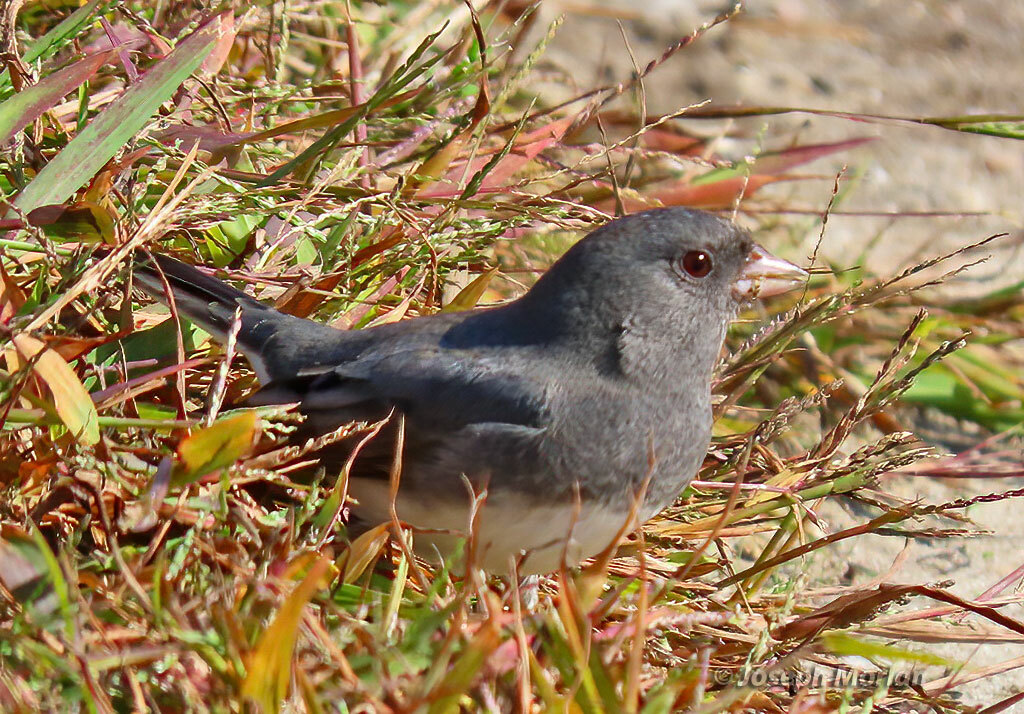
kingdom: Animalia
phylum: Chordata
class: Aves
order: Passeriformes
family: Passerellidae
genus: Junco
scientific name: Junco hyemalis
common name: Dark-eyed junco
